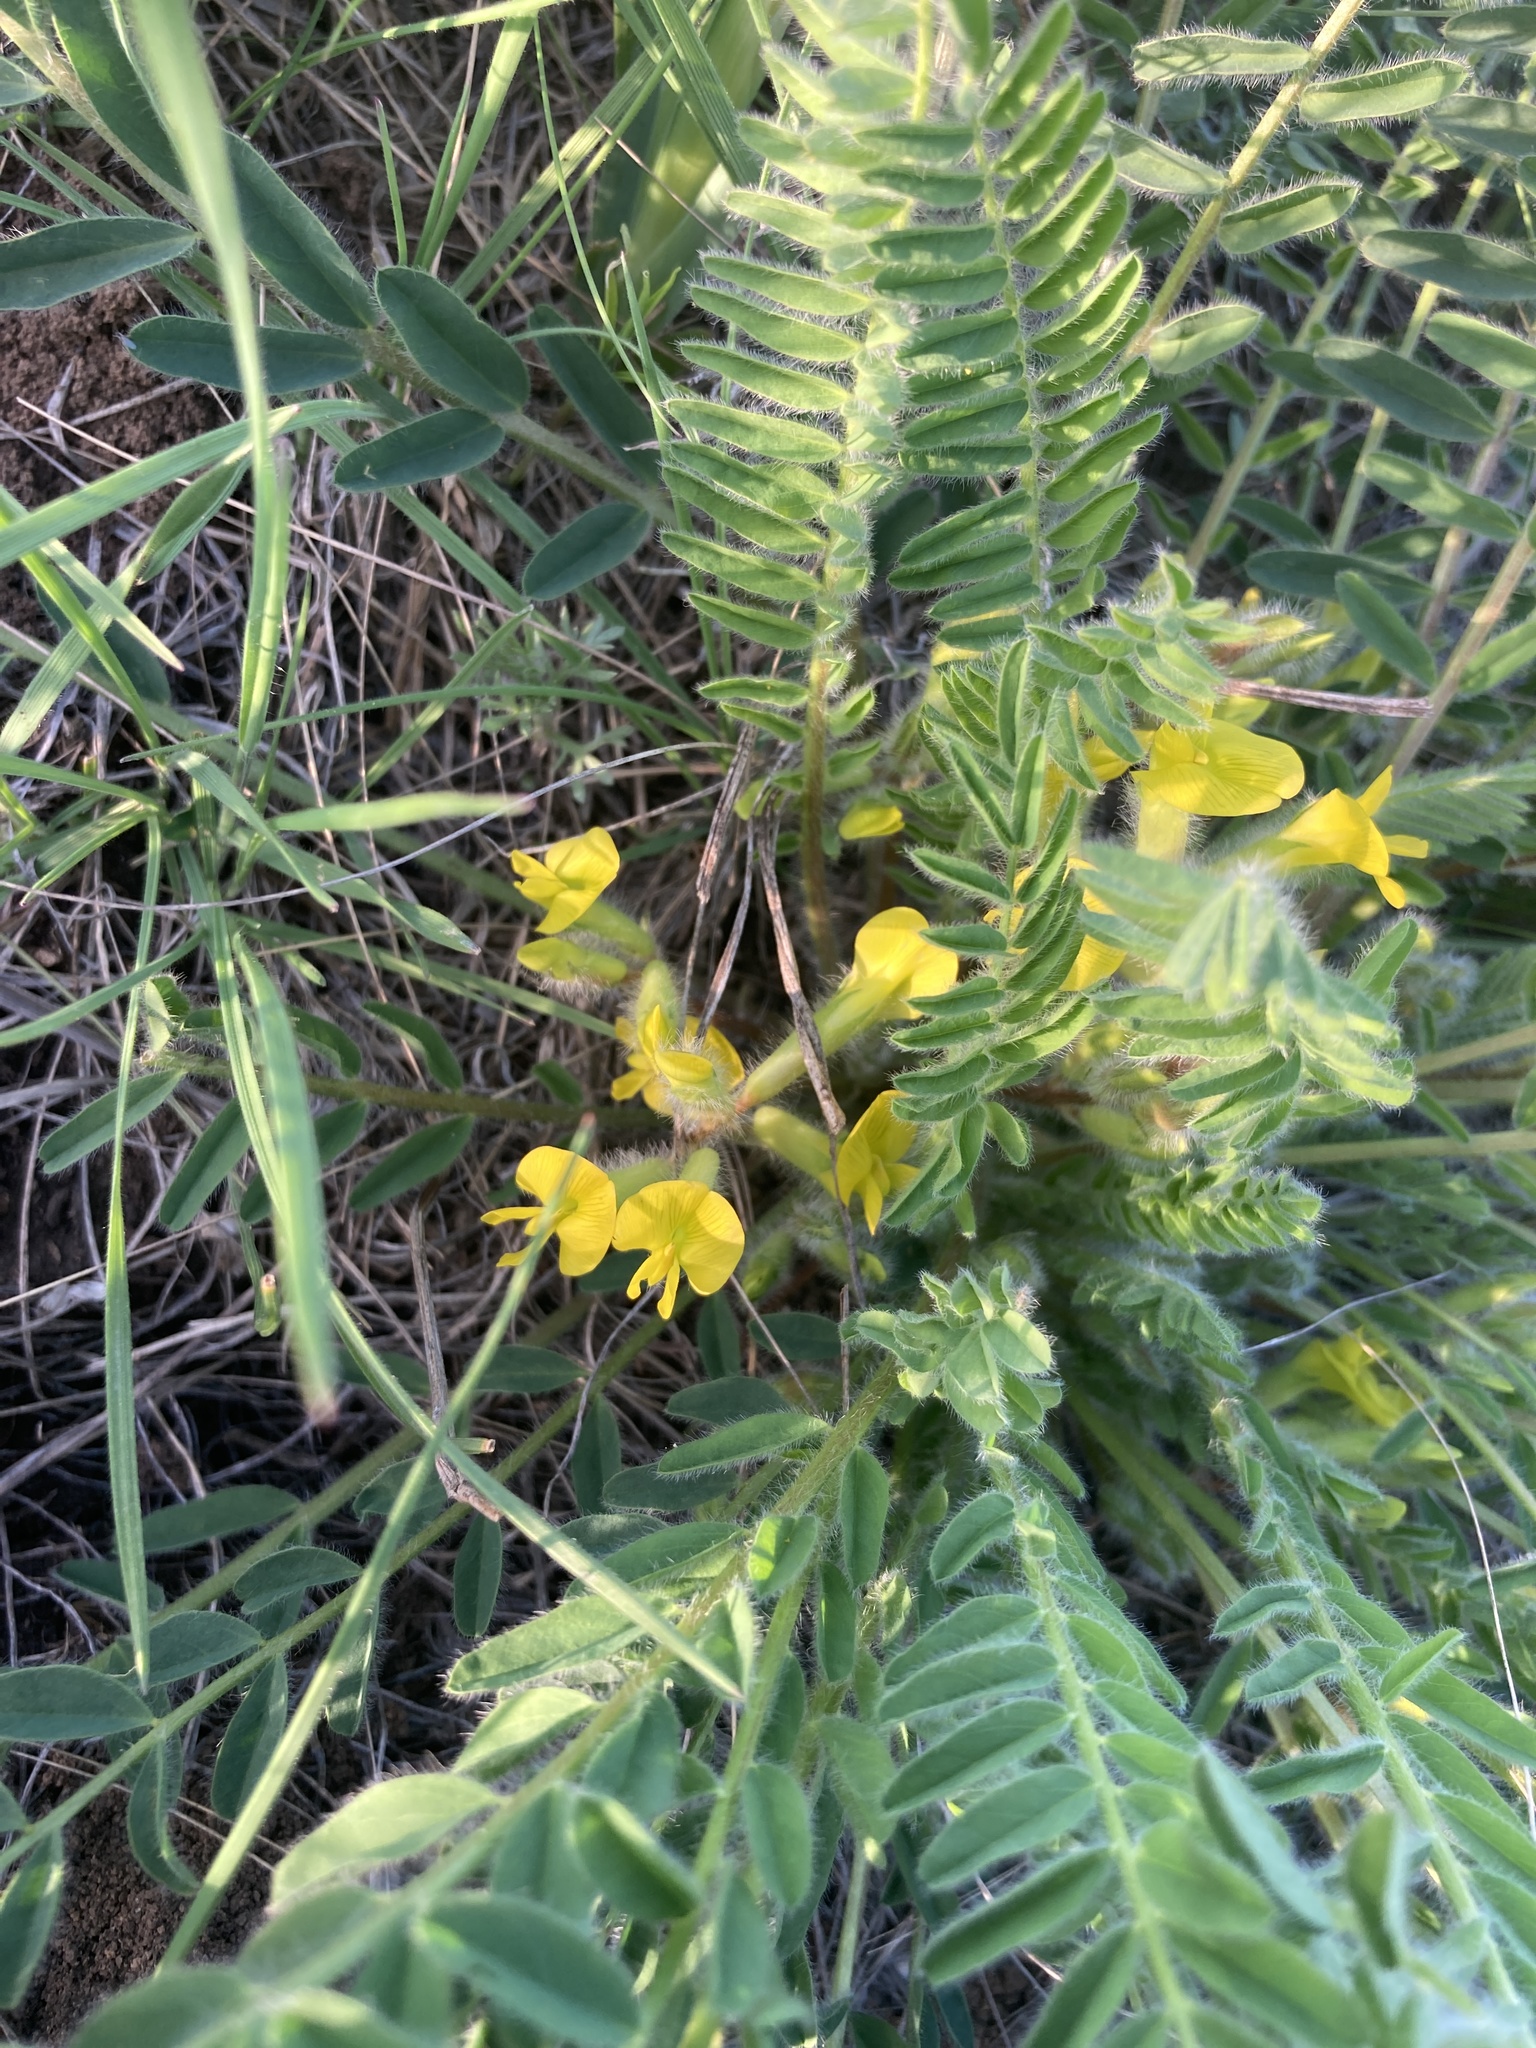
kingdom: Plantae
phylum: Tracheophyta
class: Magnoliopsida
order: Fabales
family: Fabaceae
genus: Astragalus
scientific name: Astragalus buchtormensis
